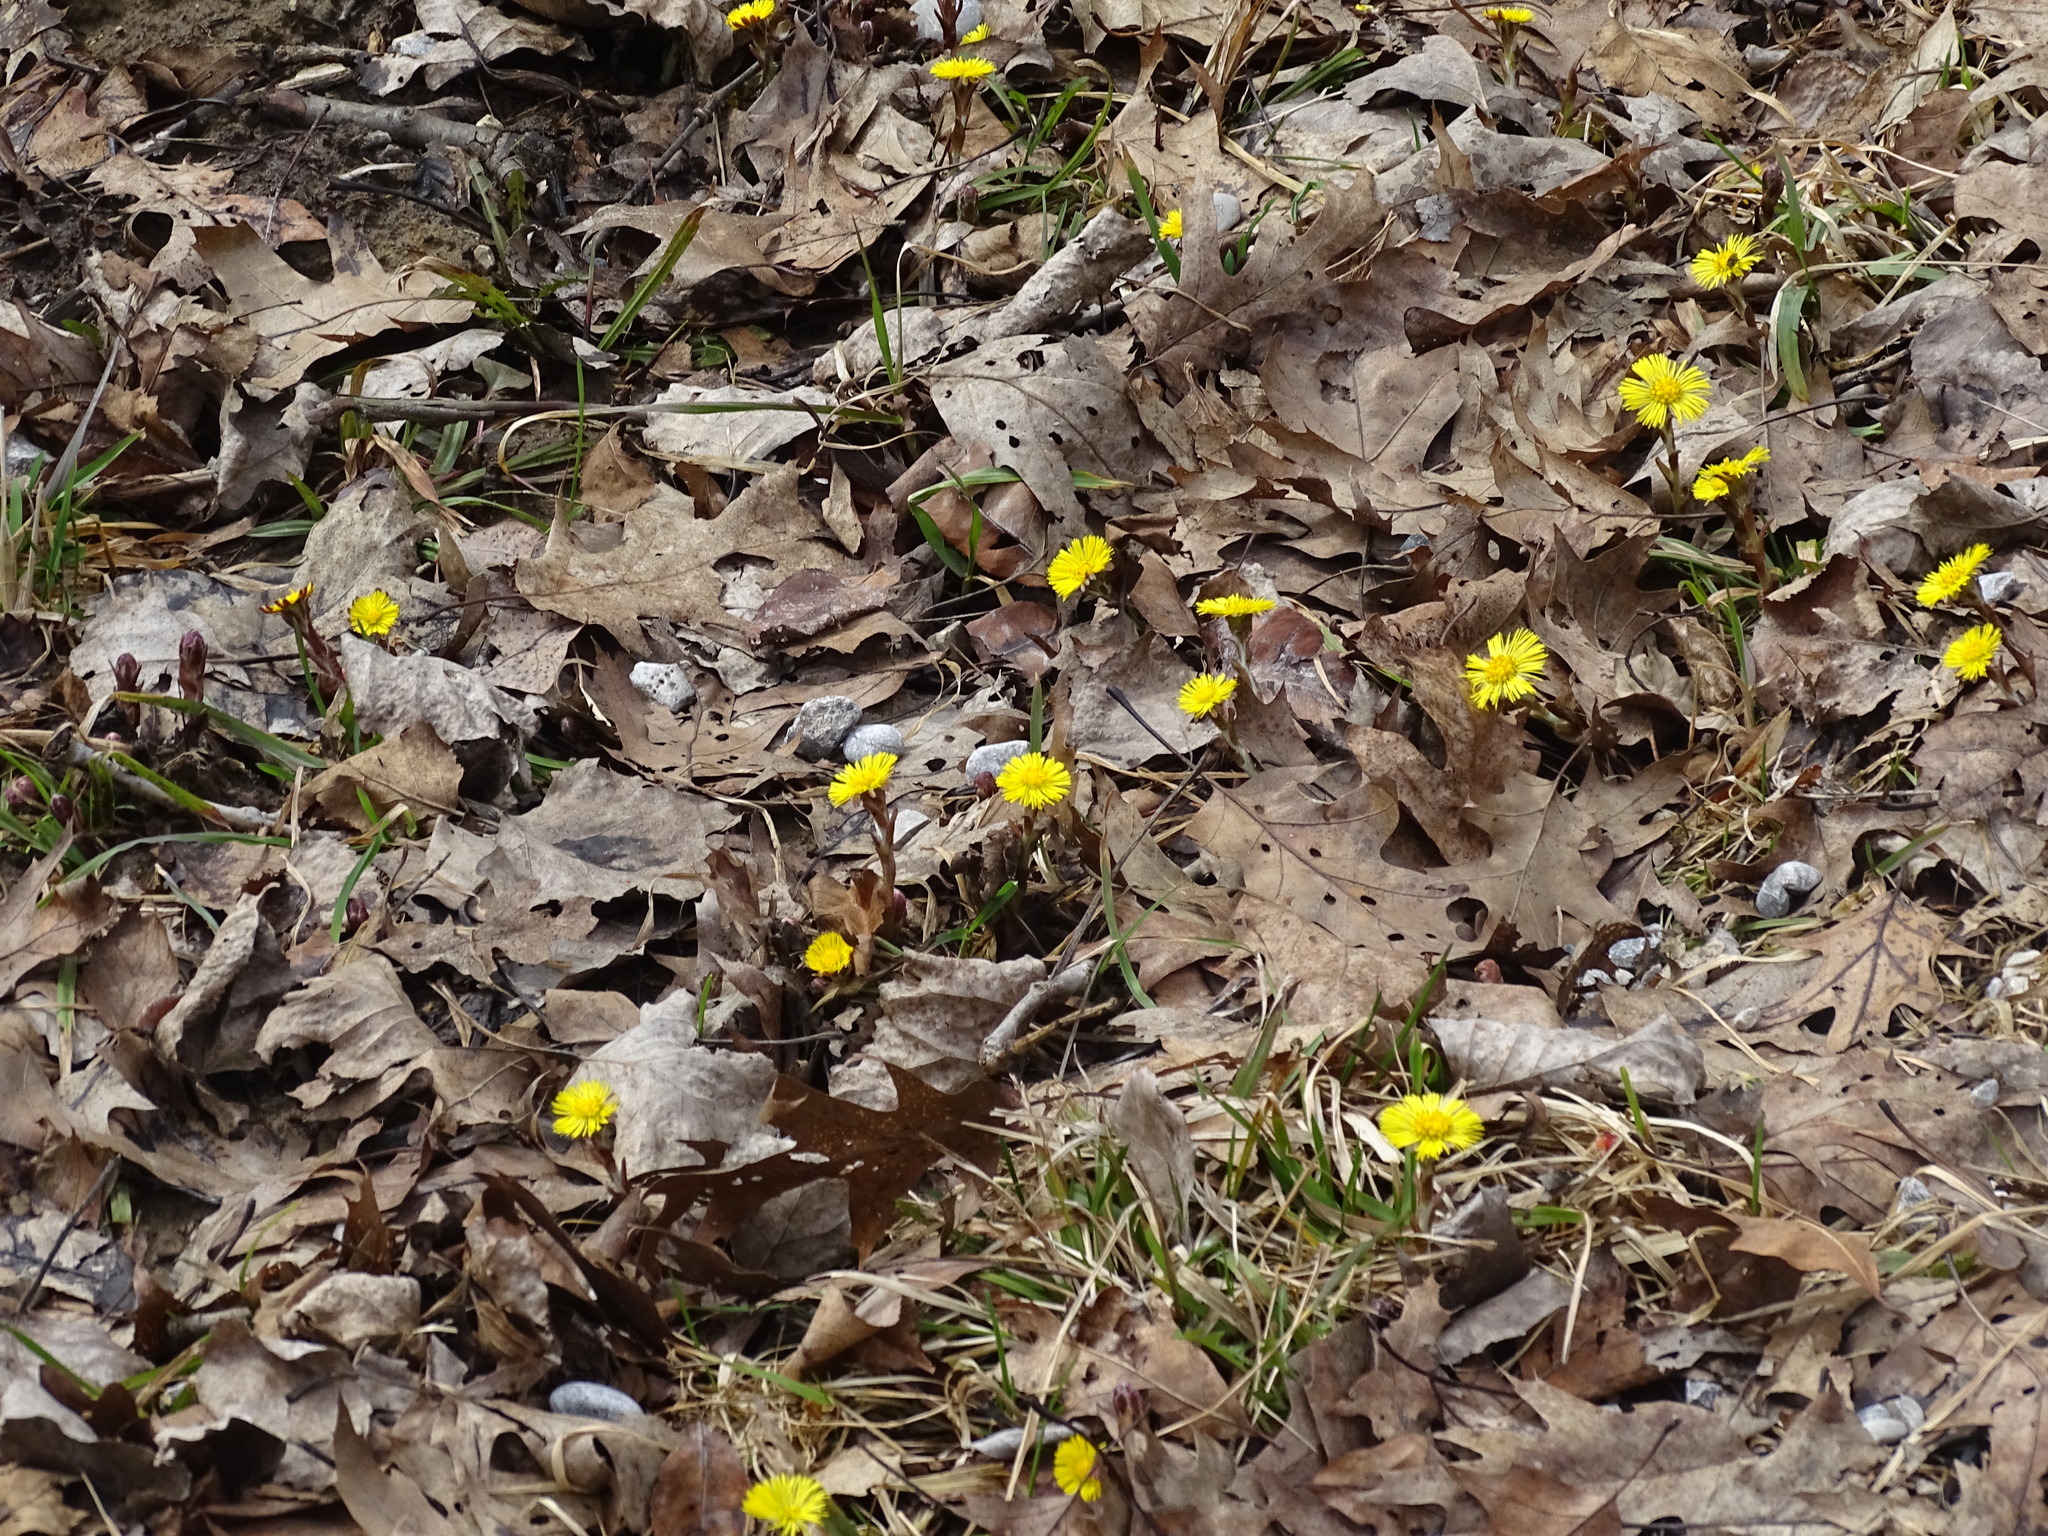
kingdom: Plantae
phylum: Tracheophyta
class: Magnoliopsida
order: Asterales
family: Asteraceae
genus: Tussilago
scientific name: Tussilago farfara
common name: Coltsfoot
